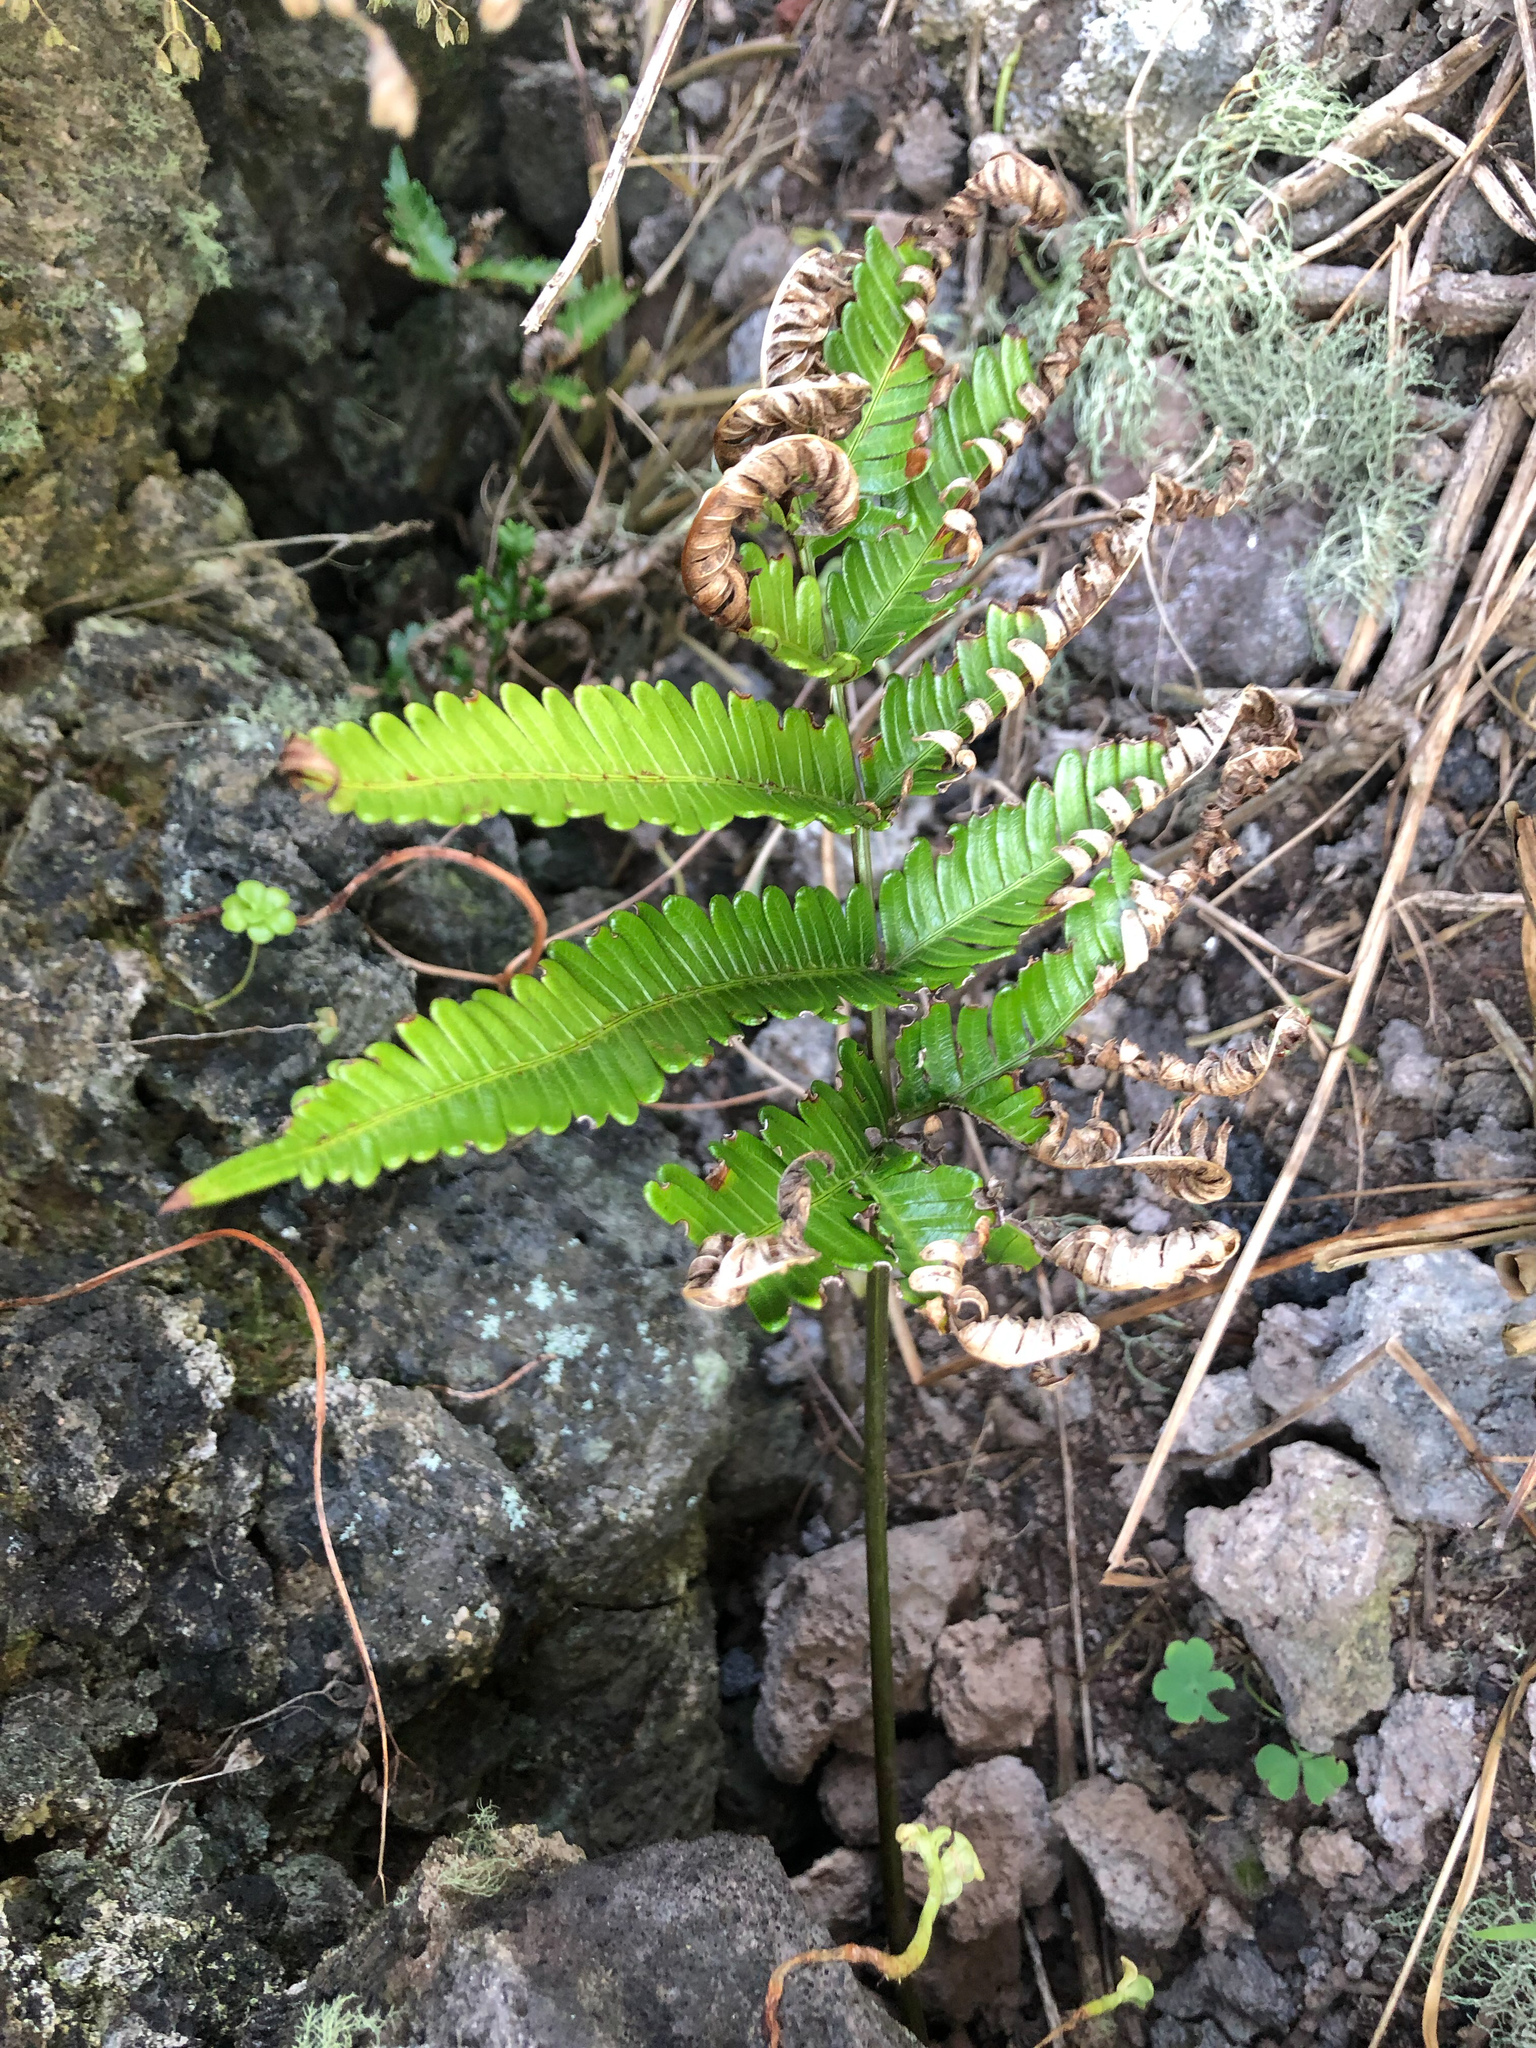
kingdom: Plantae
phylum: Tracheophyta
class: Polypodiopsida
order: Polypodiales
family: Pteridaceae
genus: Pteris
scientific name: Pteris fauriei
